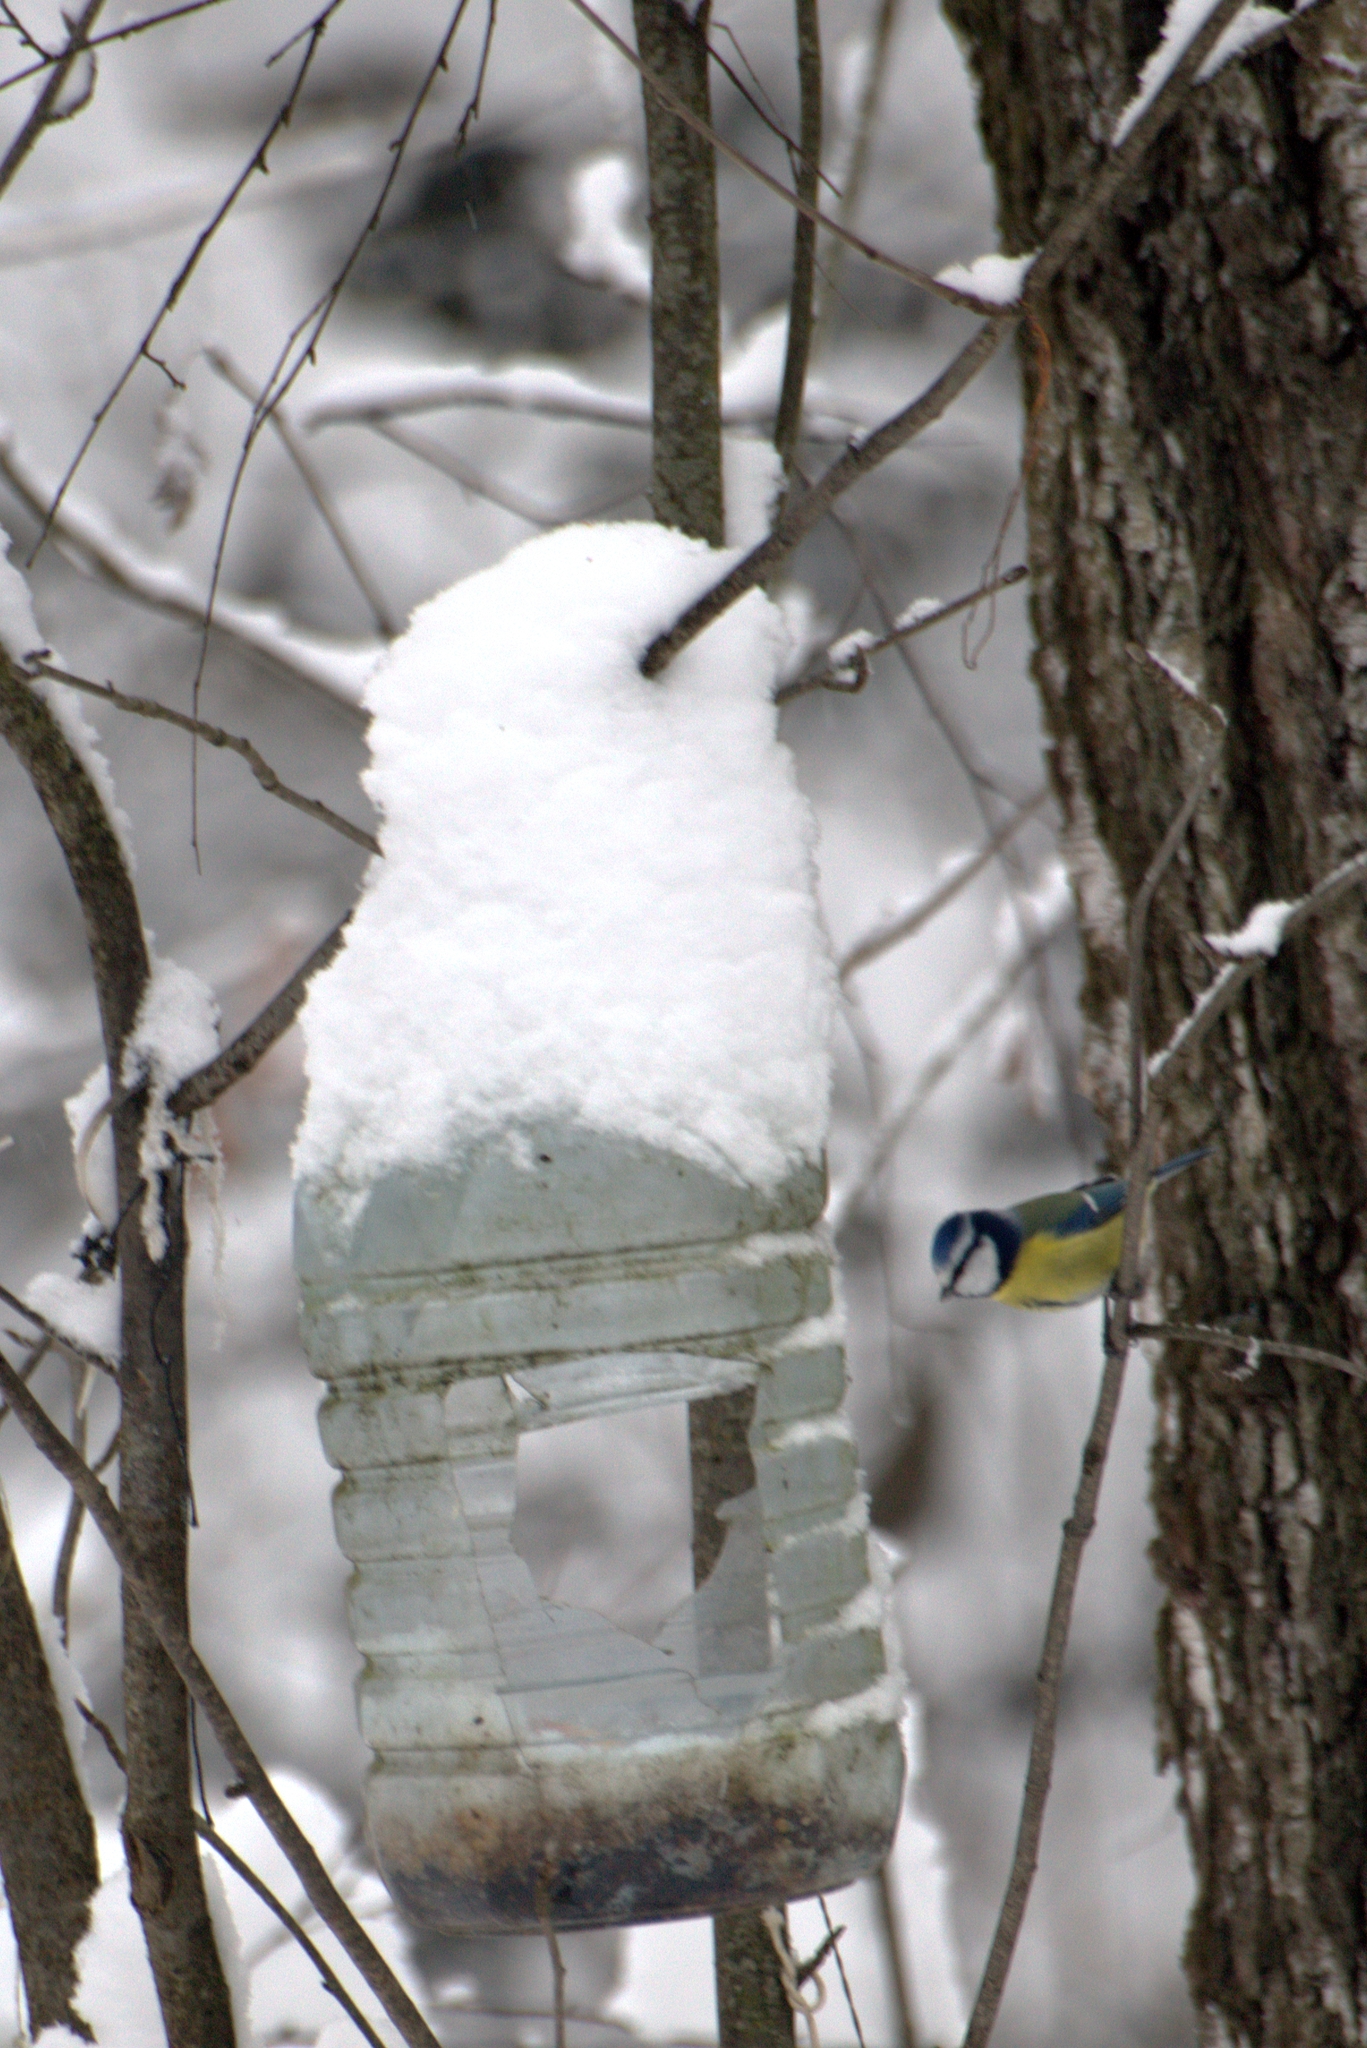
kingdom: Animalia
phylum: Chordata
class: Aves
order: Passeriformes
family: Paridae
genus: Cyanistes
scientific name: Cyanistes caeruleus
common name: Eurasian blue tit
